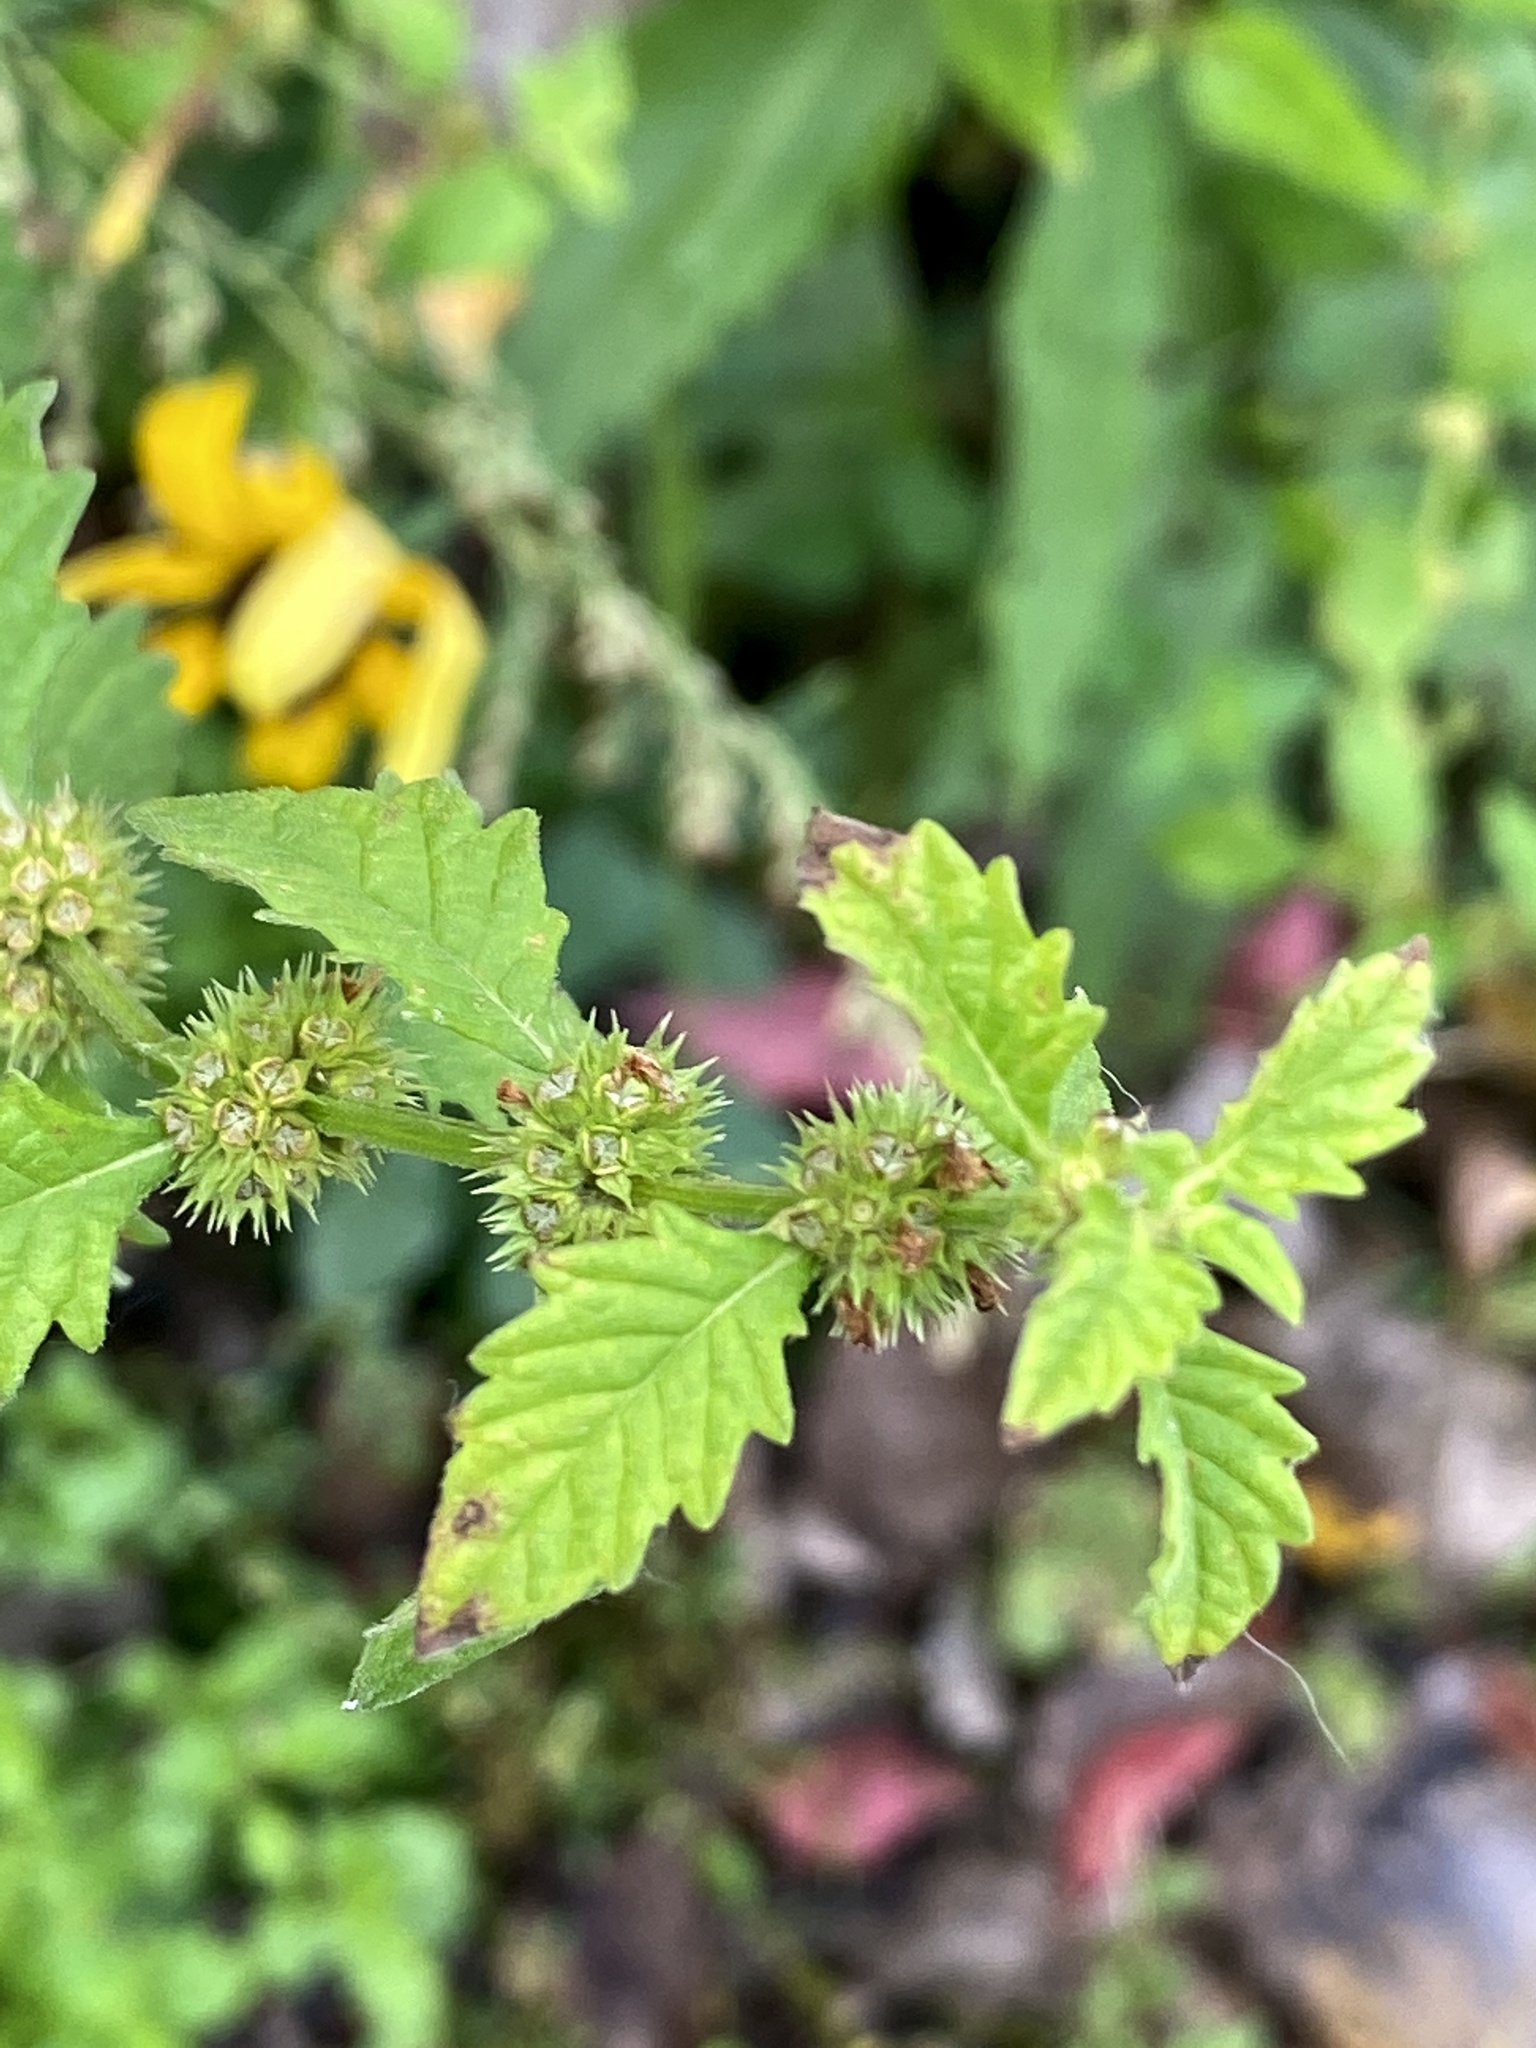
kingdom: Plantae
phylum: Tracheophyta
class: Magnoliopsida
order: Lamiales
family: Lamiaceae
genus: Lycopus
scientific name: Lycopus europaeus
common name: European bugleweed
